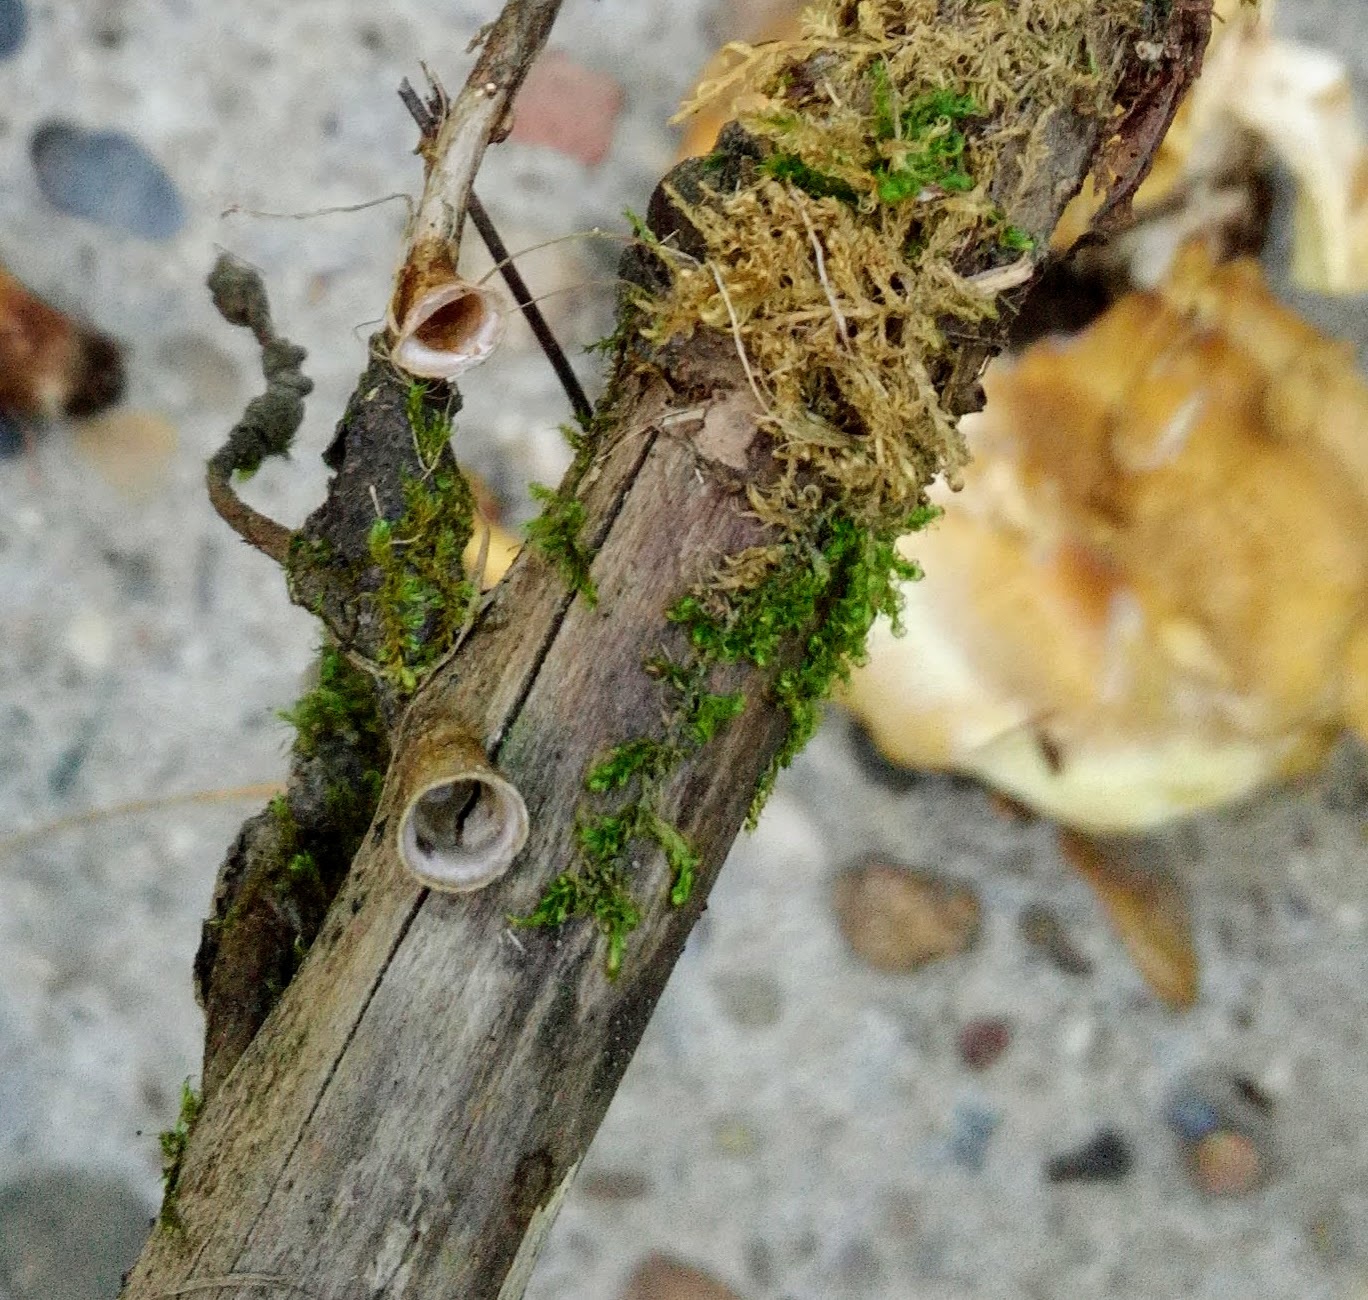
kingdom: Fungi
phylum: Basidiomycota
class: Agaricomycetes
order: Agaricales
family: Nidulariaceae
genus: Crucibulum
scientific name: Crucibulum laeve
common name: Common bird's nest
